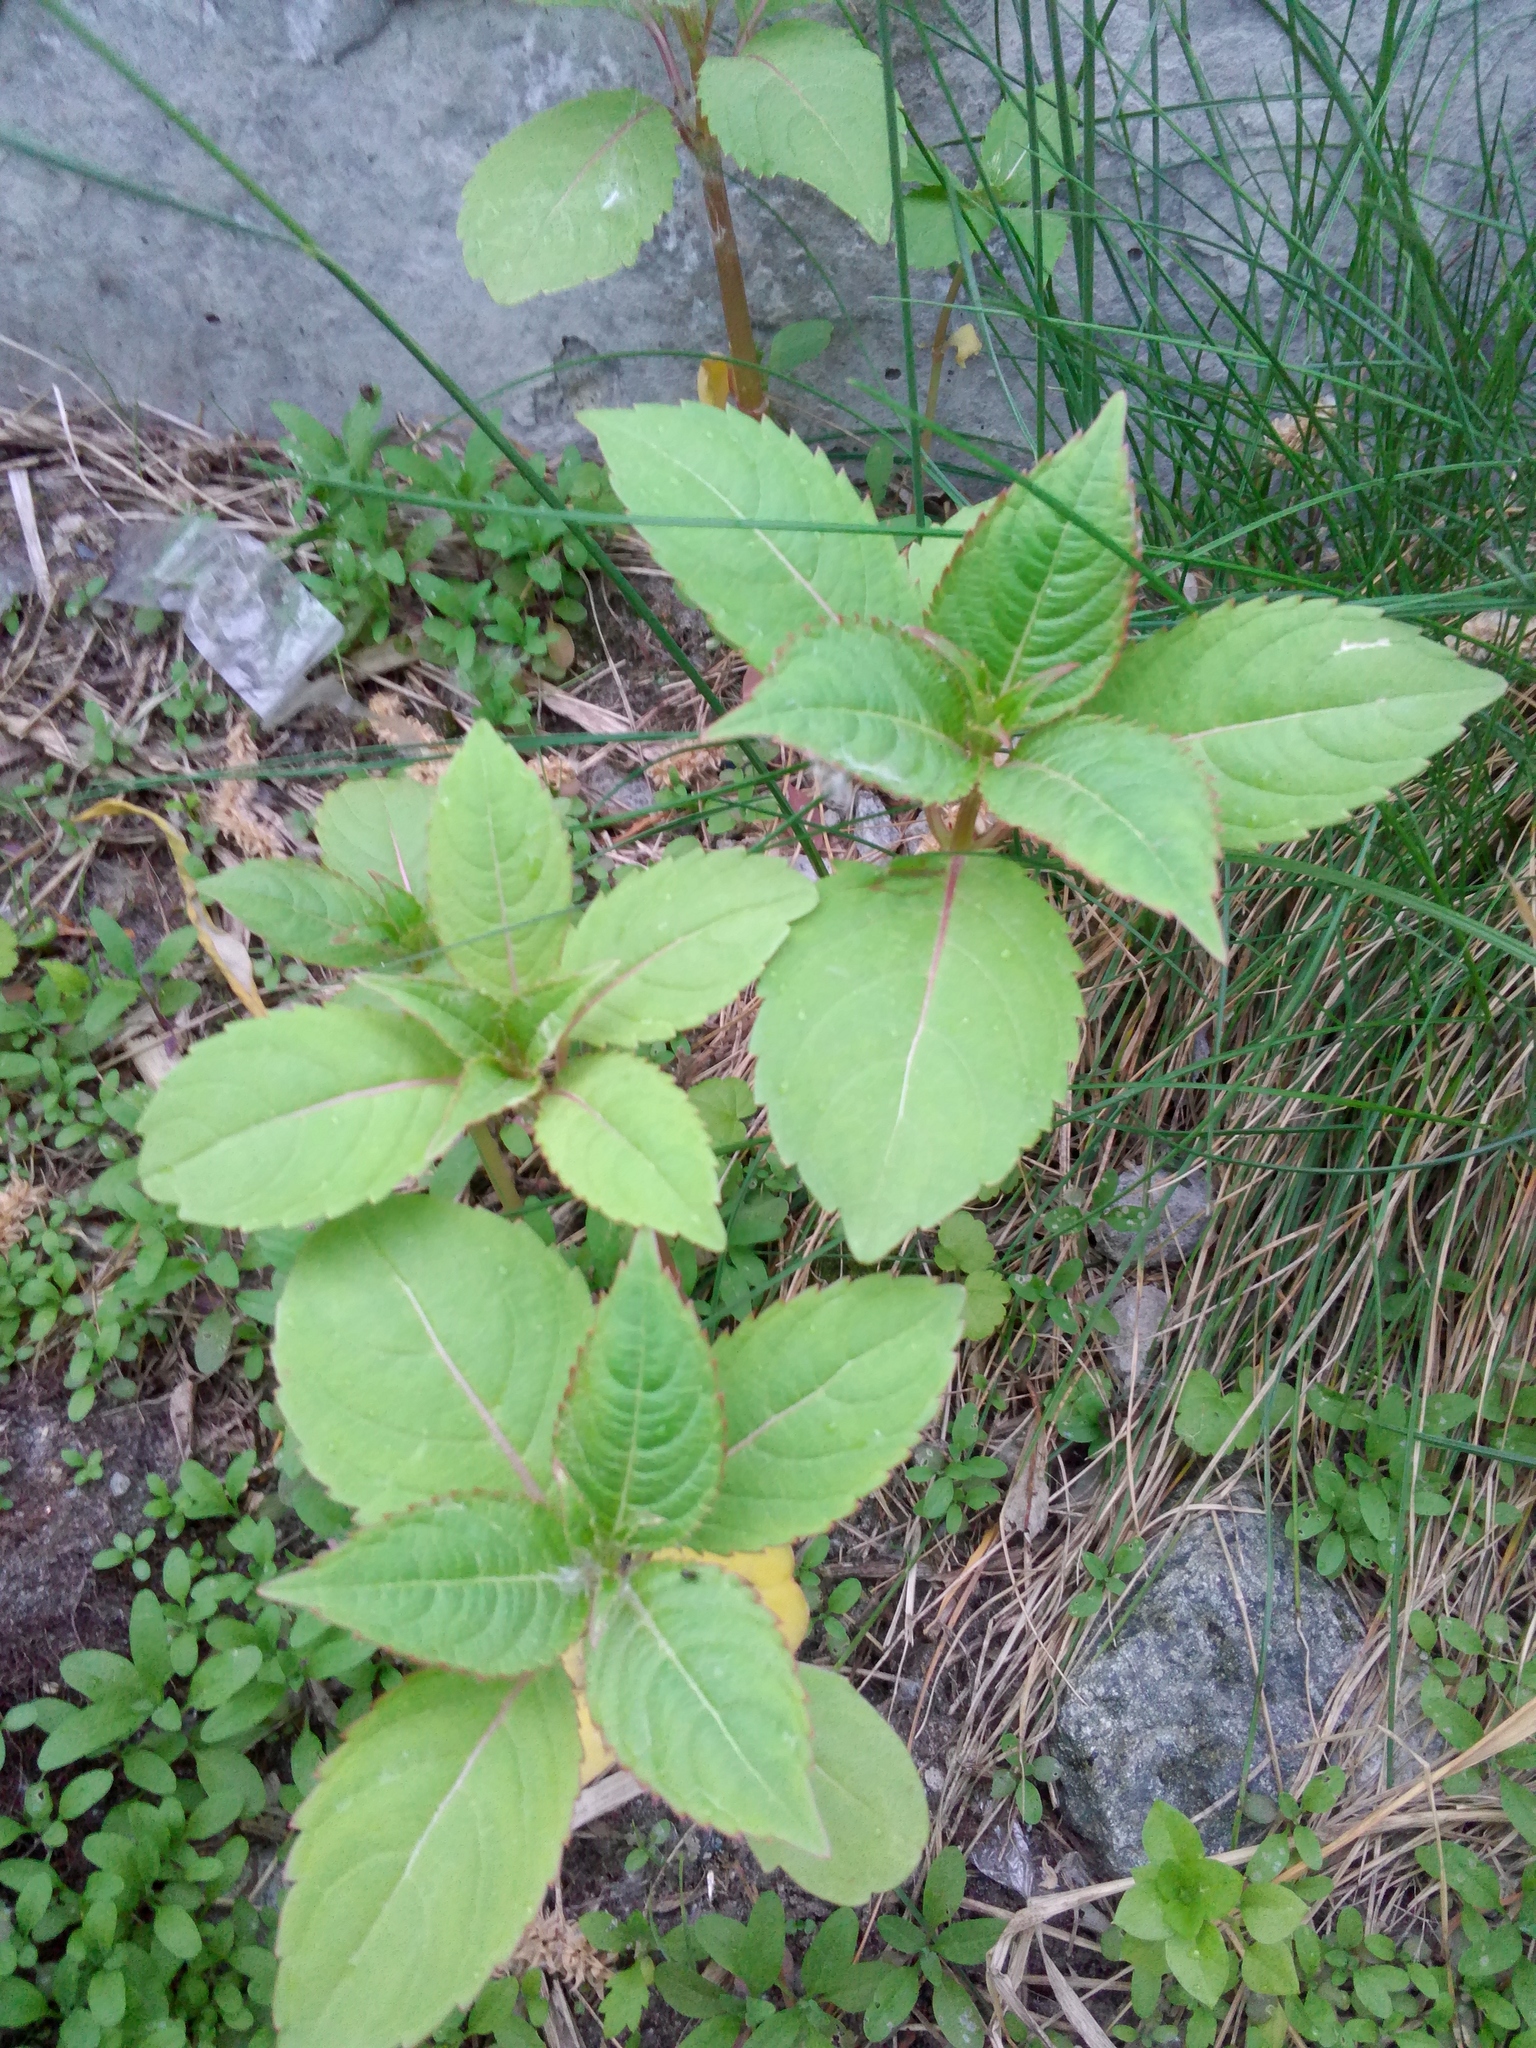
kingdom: Plantae
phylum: Tracheophyta
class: Magnoliopsida
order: Ericales
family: Balsaminaceae
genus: Impatiens
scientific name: Impatiens glandulifera
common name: Himalayan balsam
